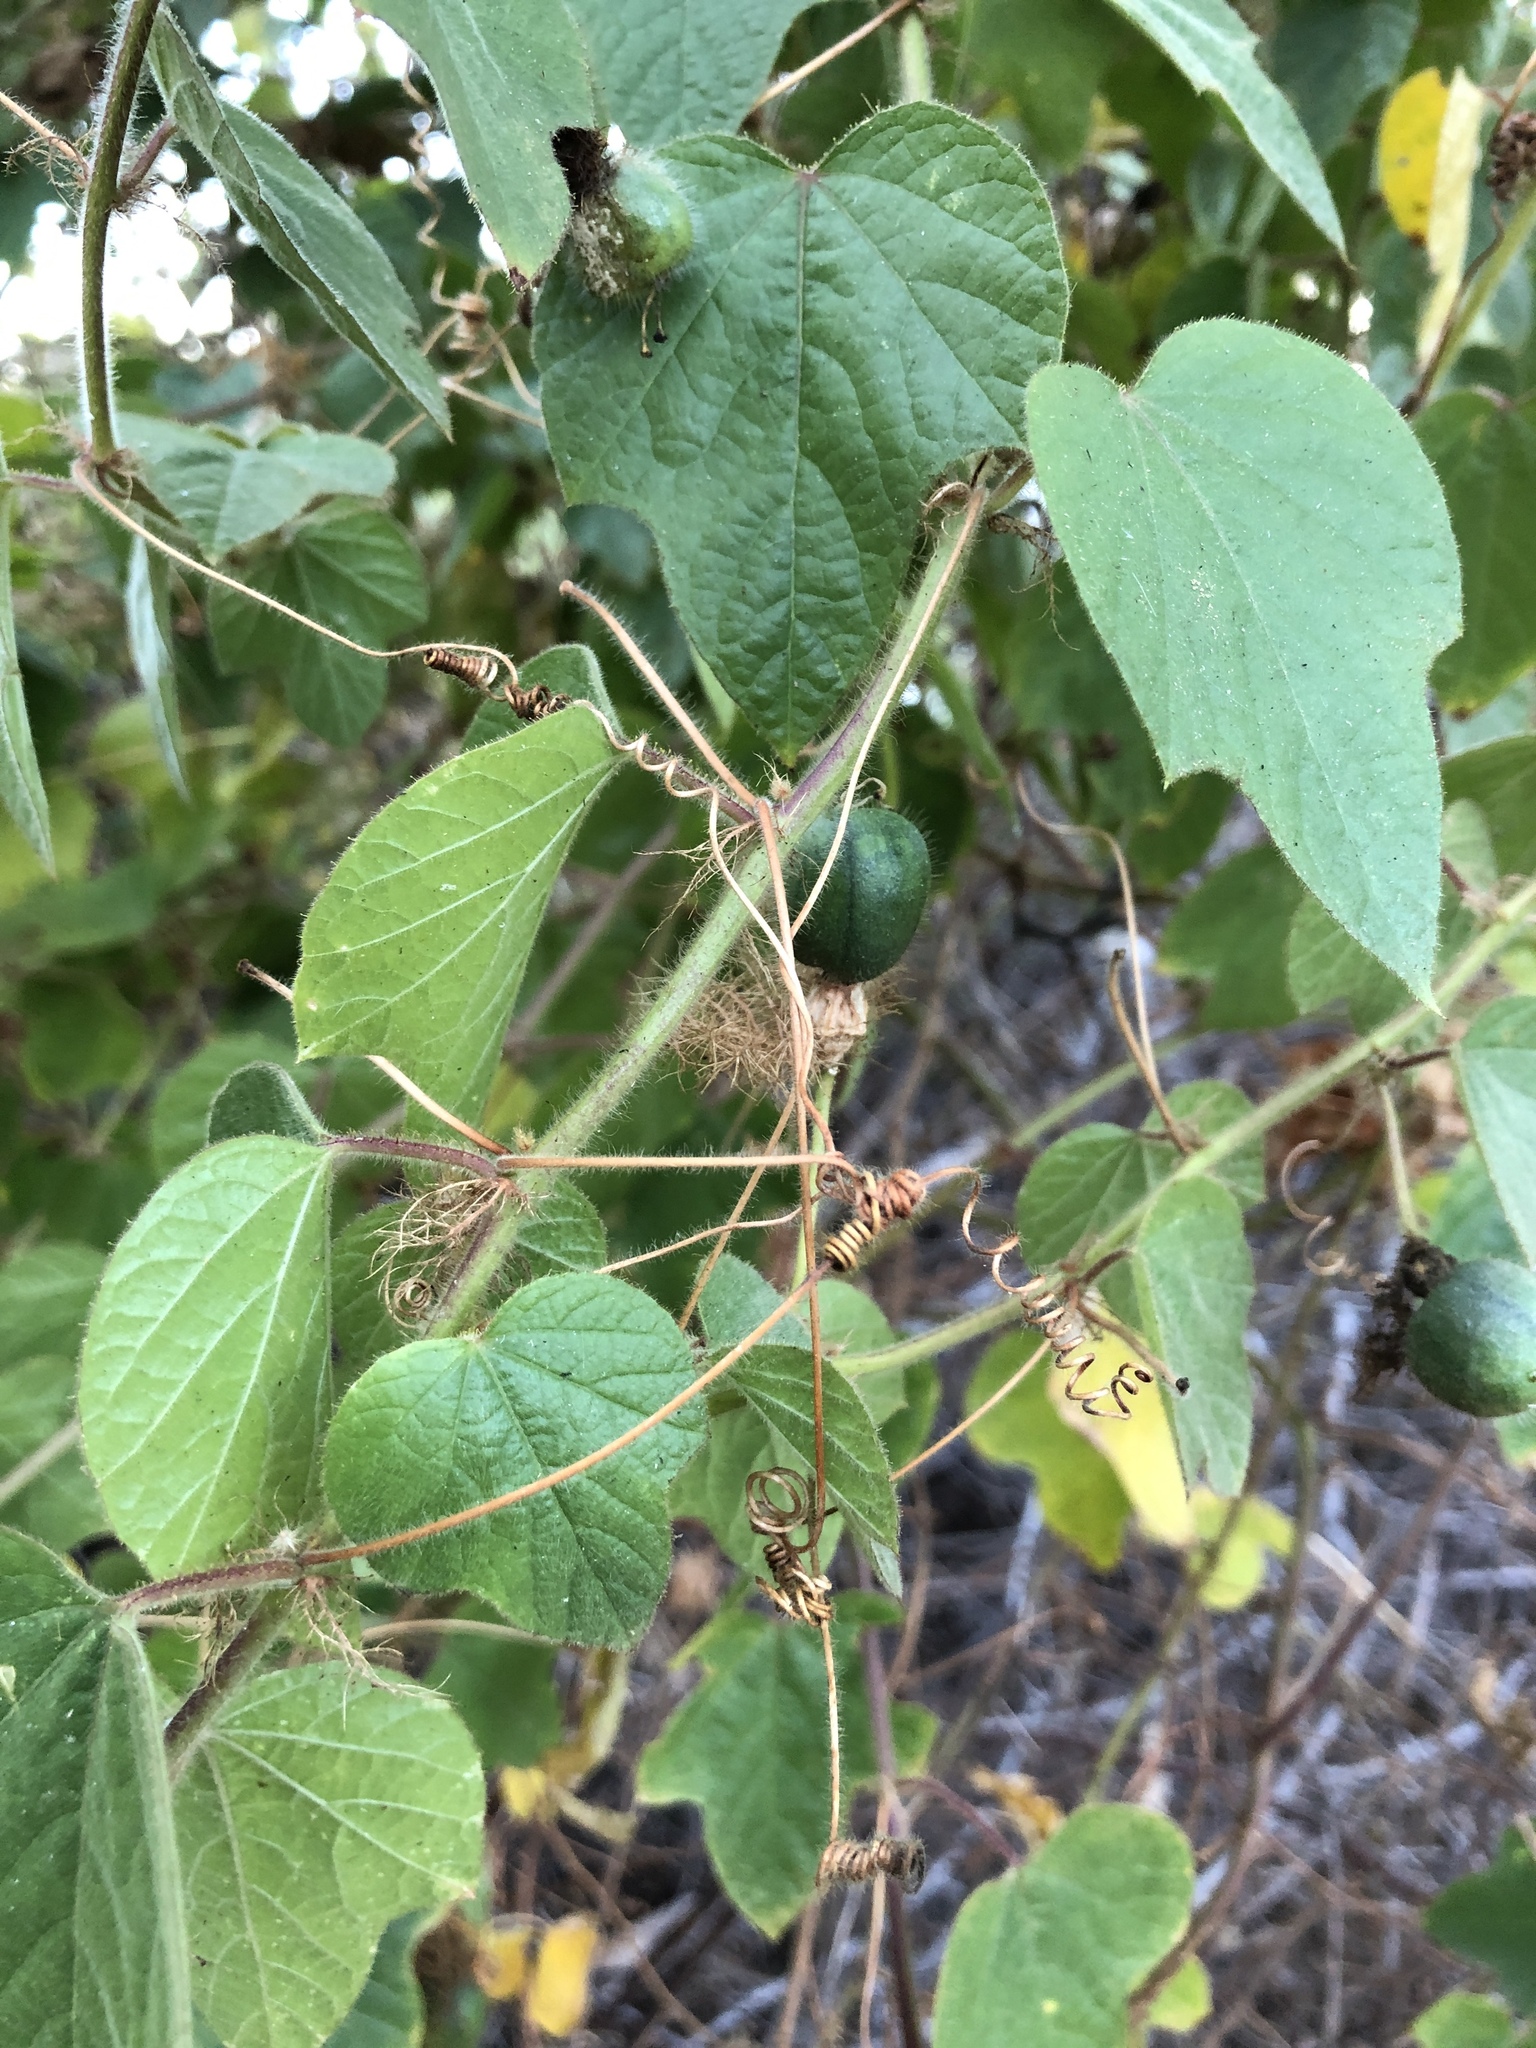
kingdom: Plantae
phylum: Tracheophyta
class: Magnoliopsida
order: Malpighiales
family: Passifloraceae
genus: Passiflora
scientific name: Passiflora foetida
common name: Fetid passionflower
